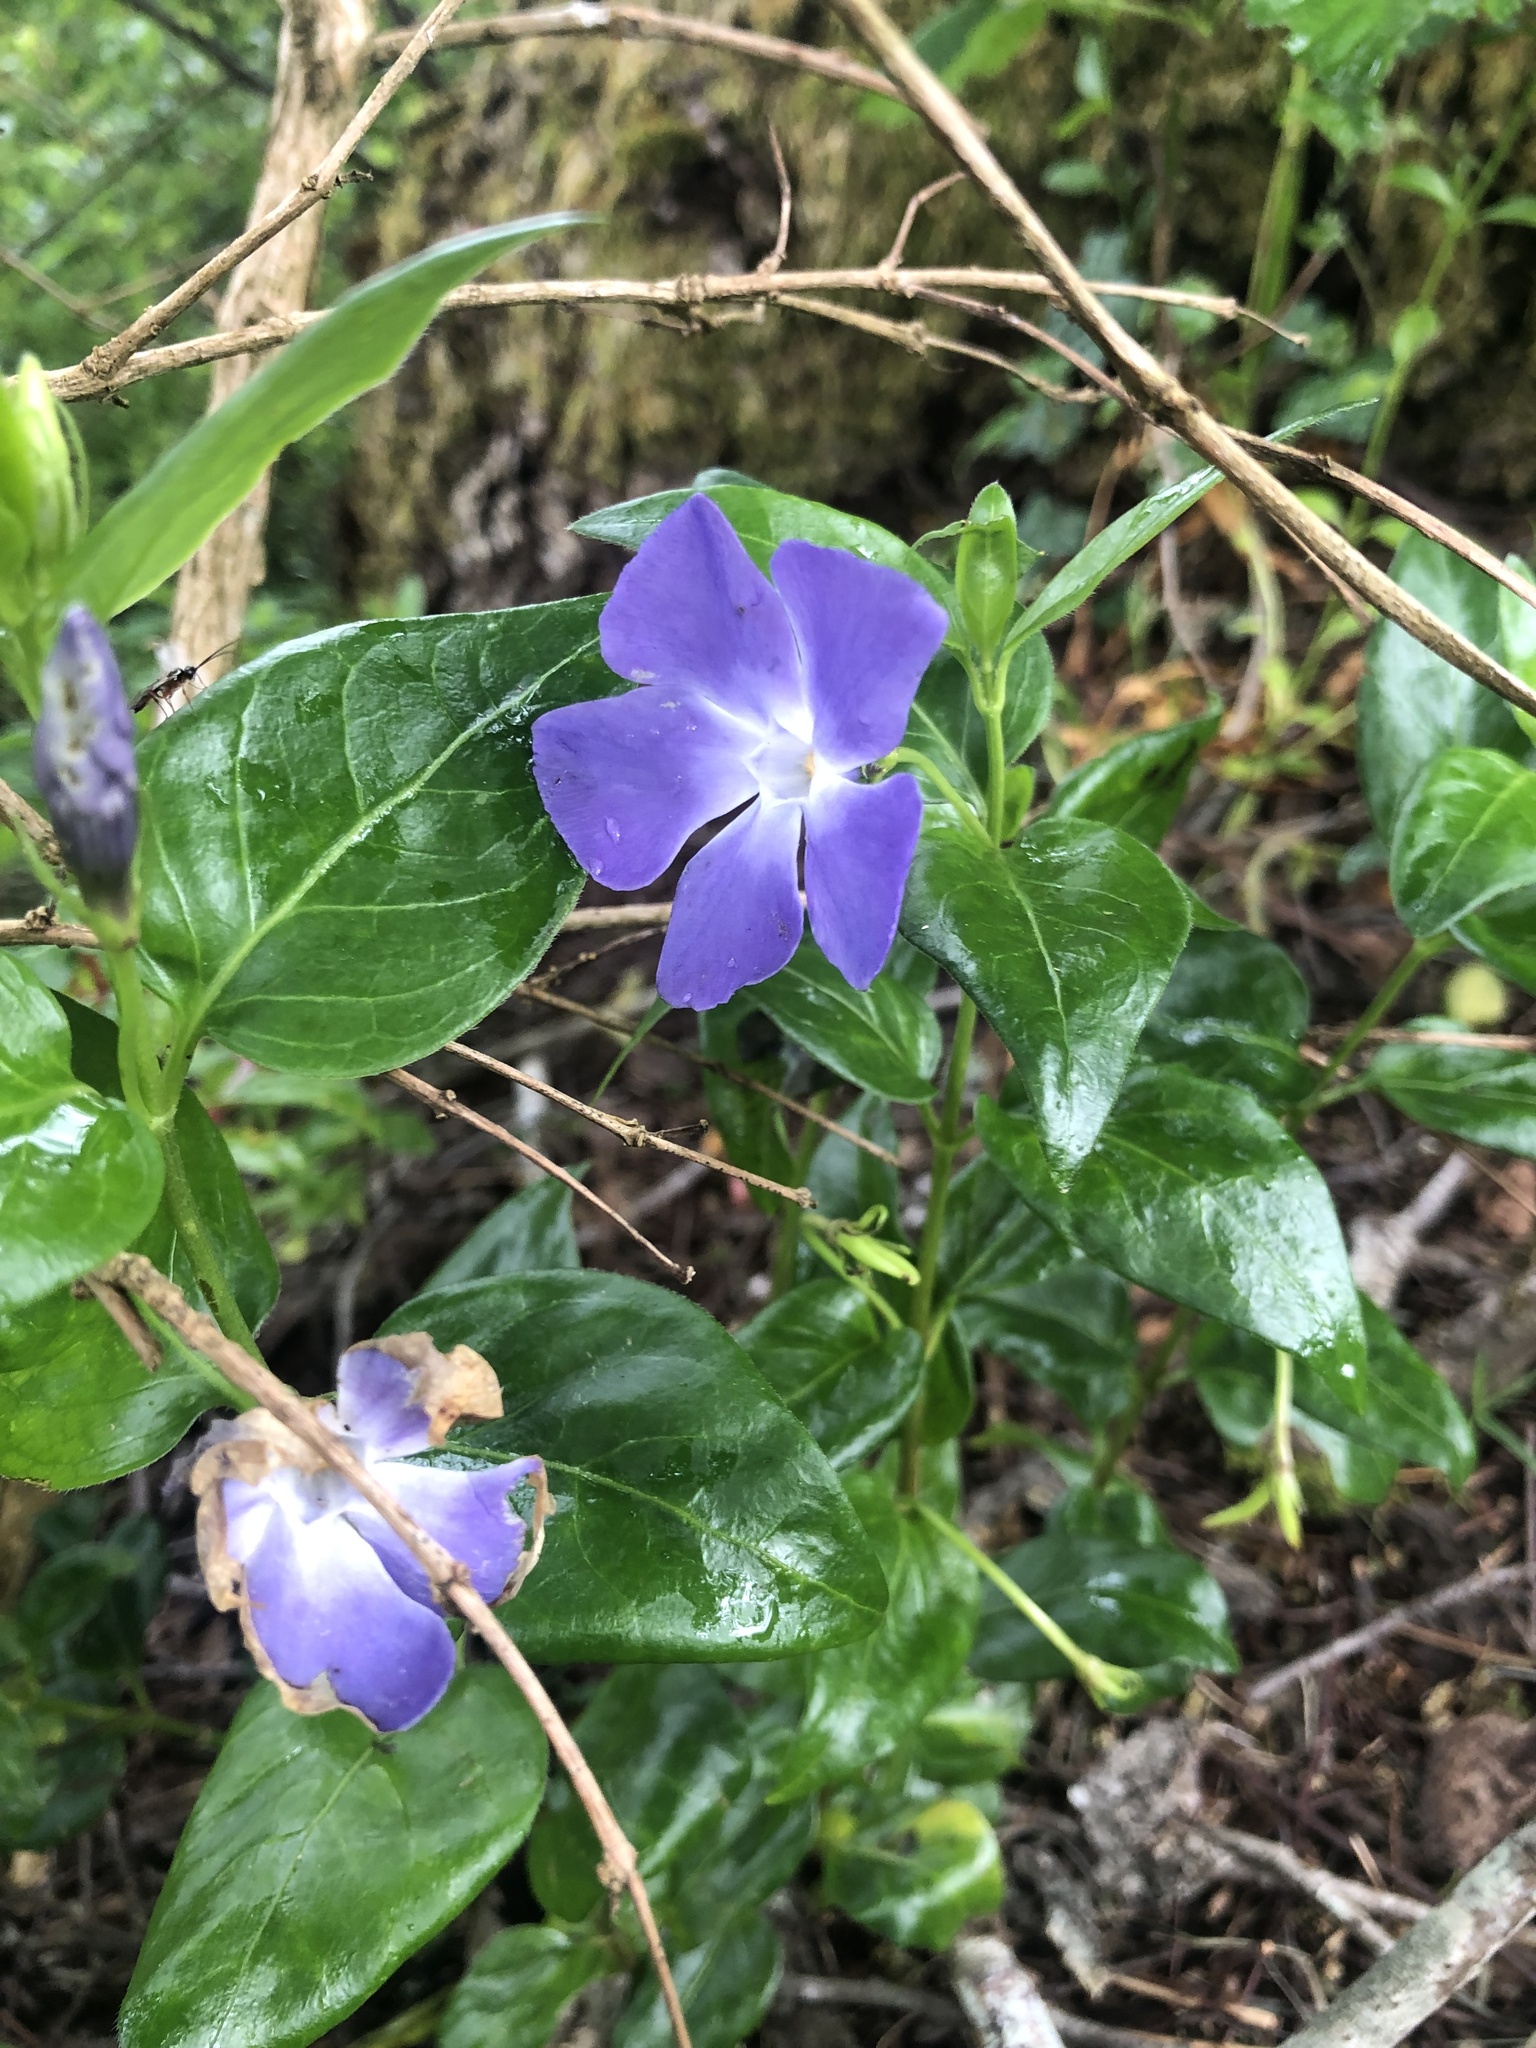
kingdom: Plantae
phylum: Tracheophyta
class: Magnoliopsida
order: Gentianales
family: Apocynaceae
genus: Vinca
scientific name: Vinca major
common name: Greater periwinkle
